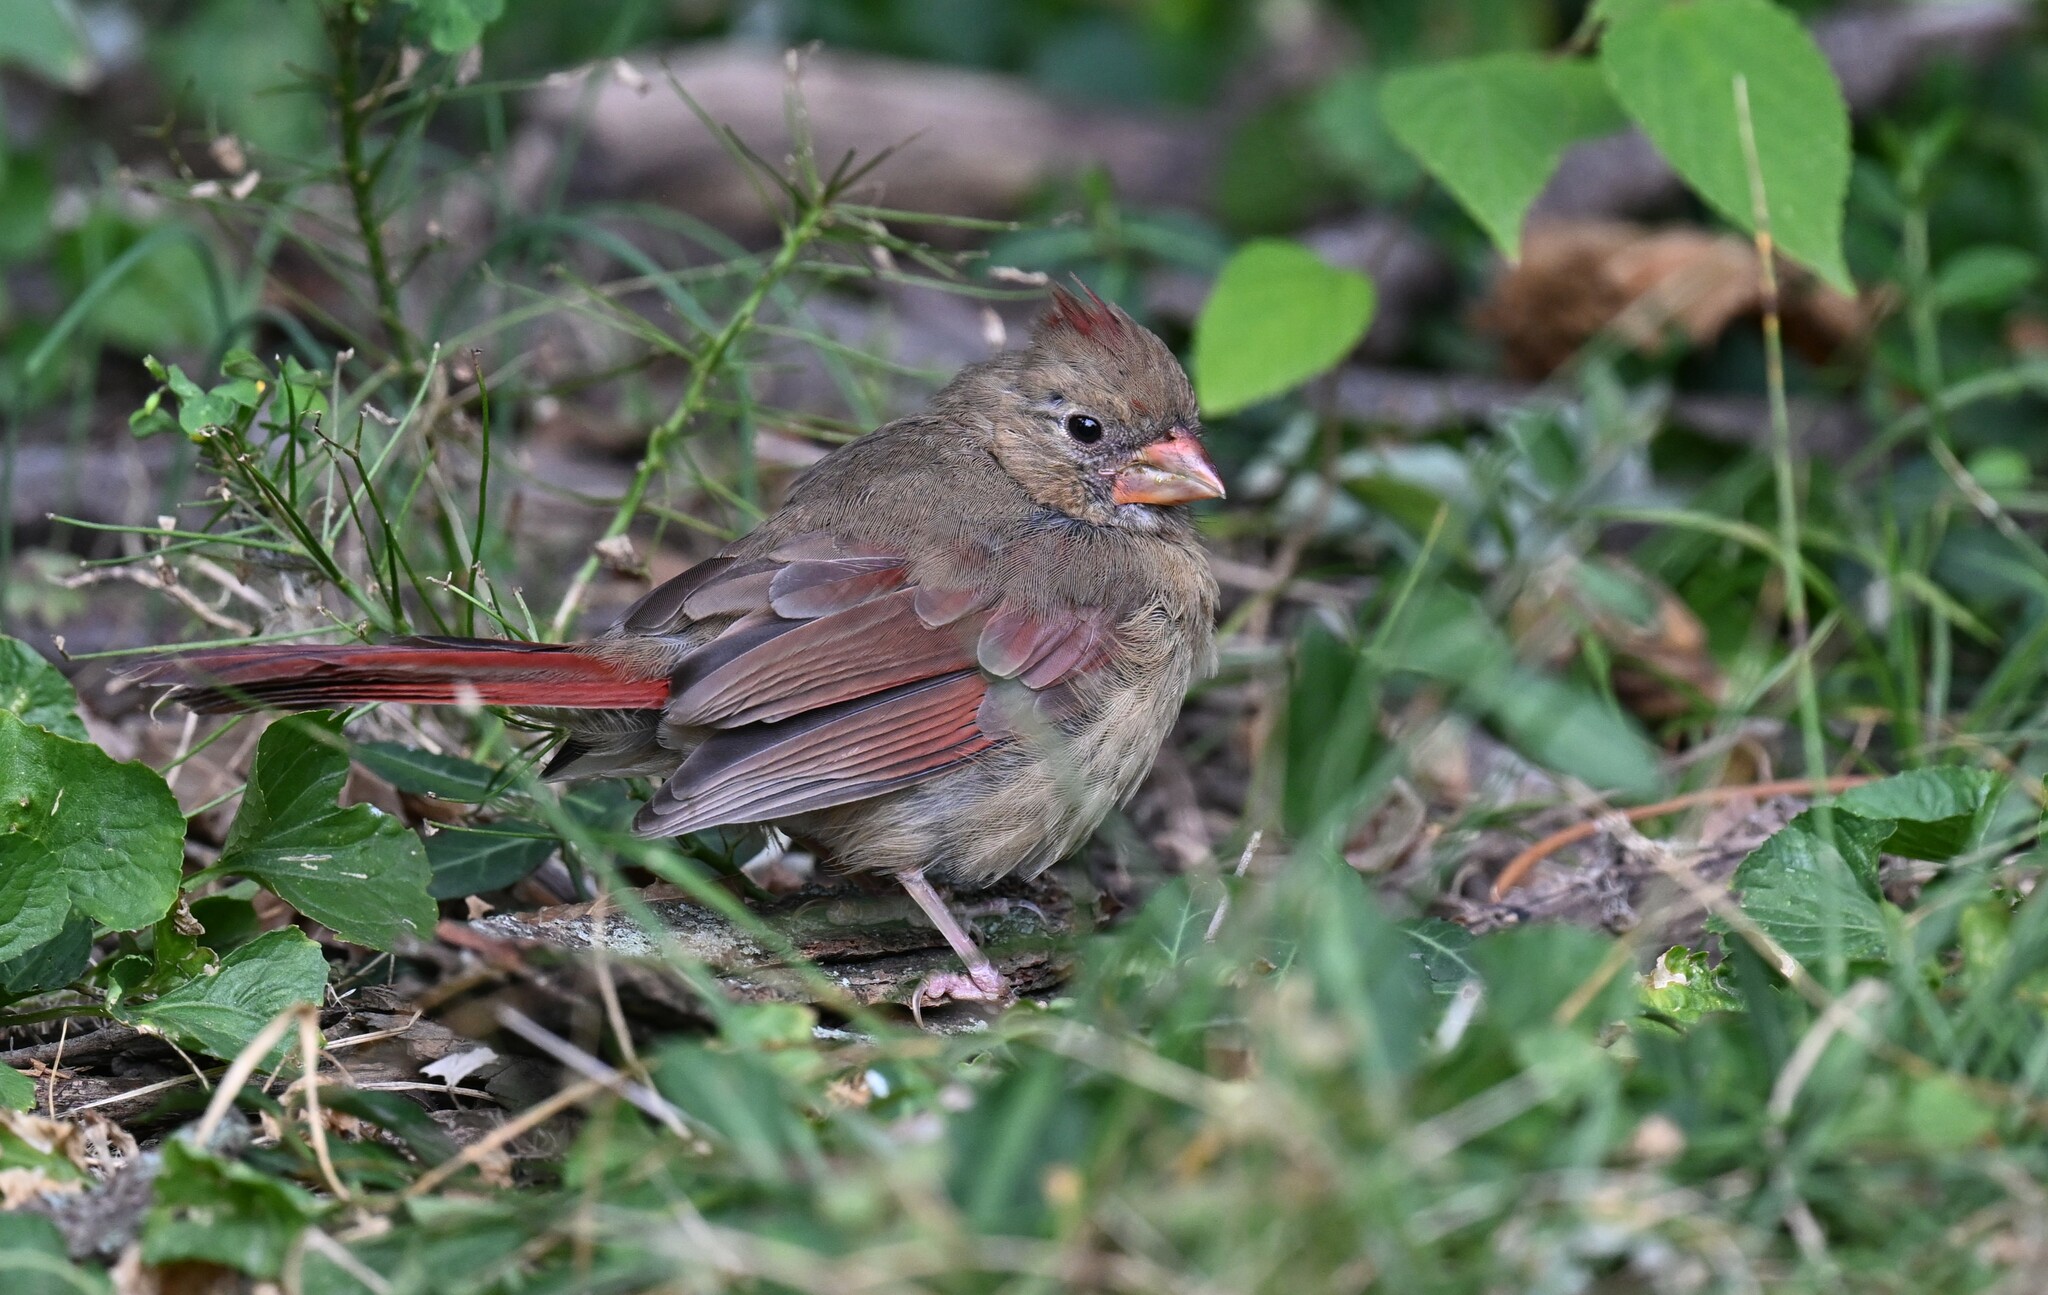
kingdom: Animalia
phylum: Chordata
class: Aves
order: Passeriformes
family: Cardinalidae
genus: Cardinalis
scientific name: Cardinalis cardinalis
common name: Northern cardinal
